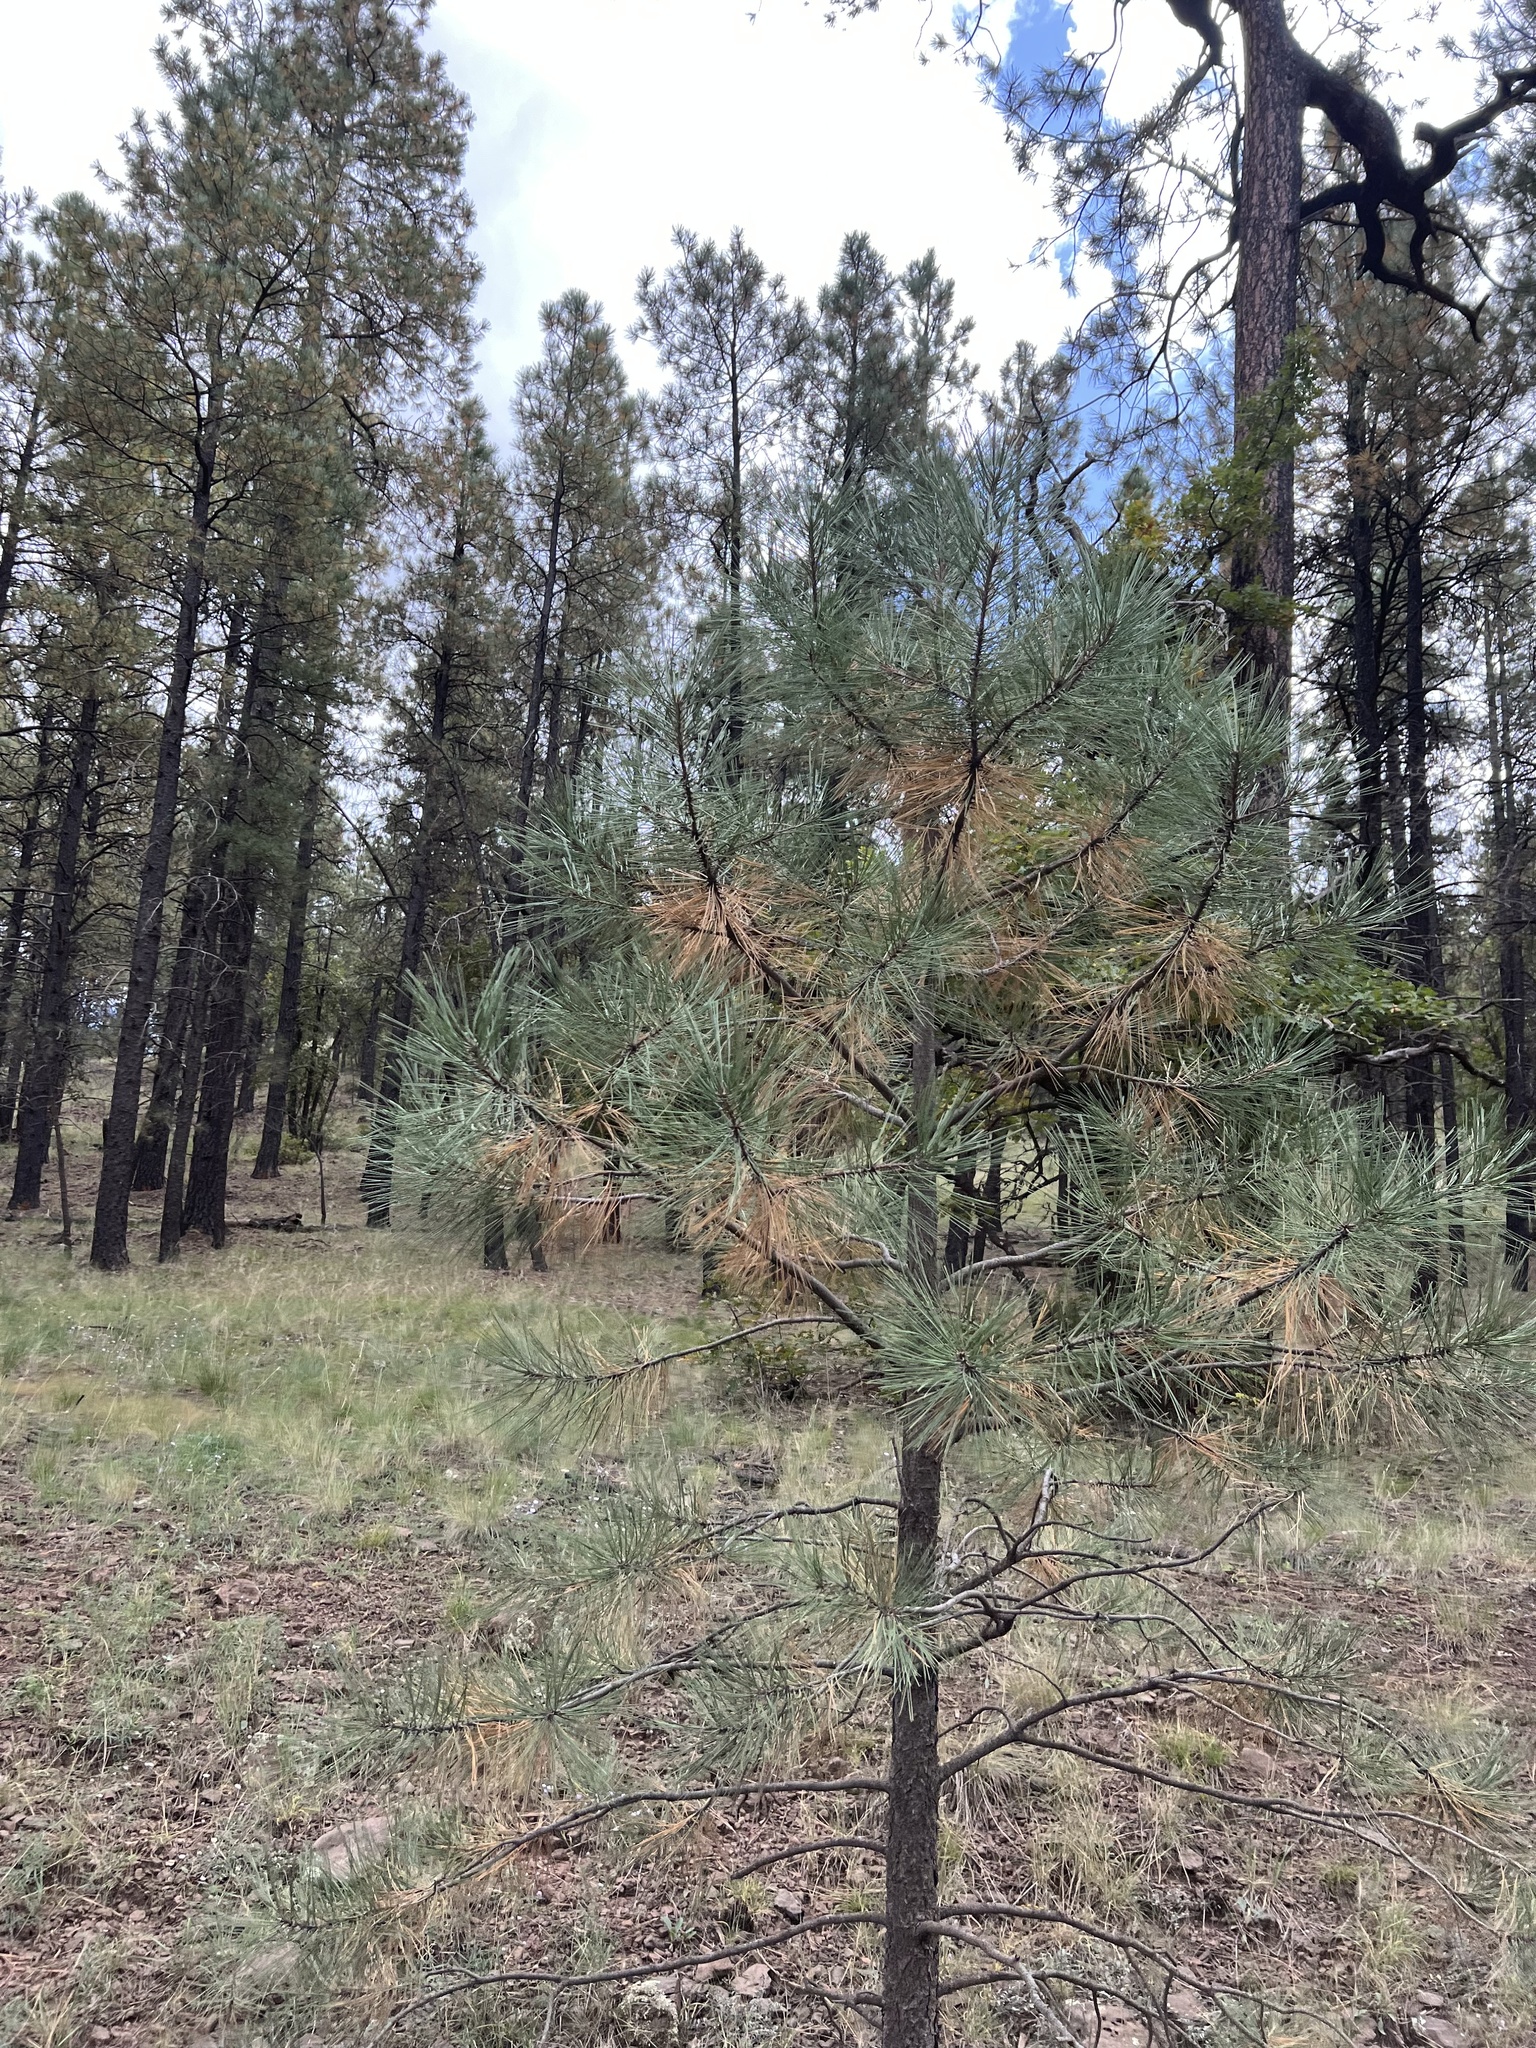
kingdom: Plantae
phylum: Tracheophyta
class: Pinopsida
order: Pinales
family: Pinaceae
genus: Pinus
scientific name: Pinus ponderosa
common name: Western yellow-pine
